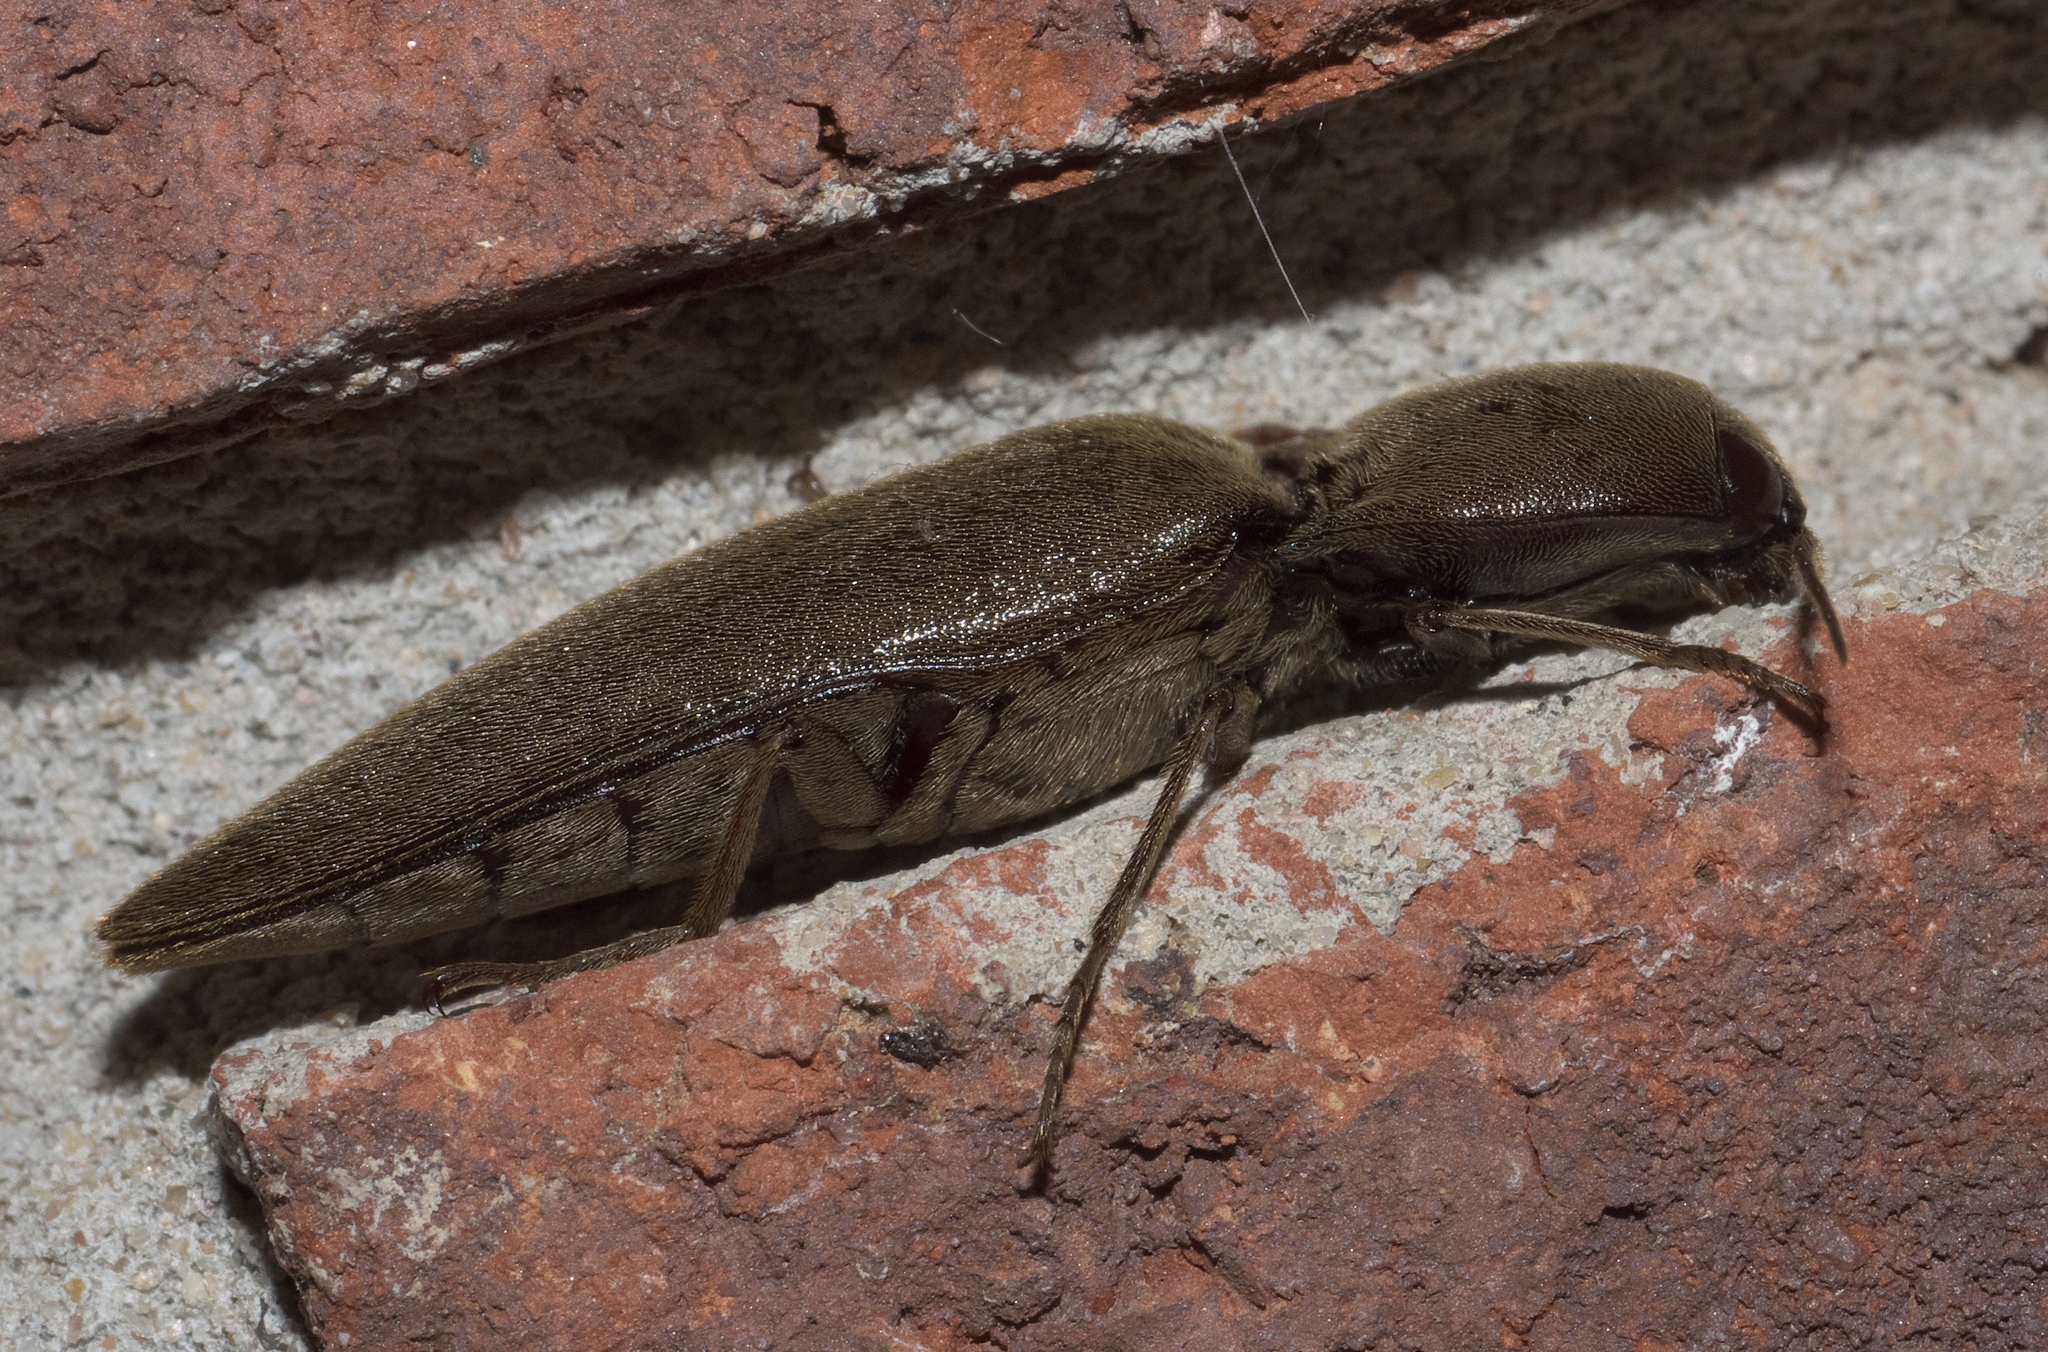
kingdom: Animalia
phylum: Arthropoda
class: Insecta
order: Coleoptera
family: Elateridae
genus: Orthostethus
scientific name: Orthostethus infuscatus
